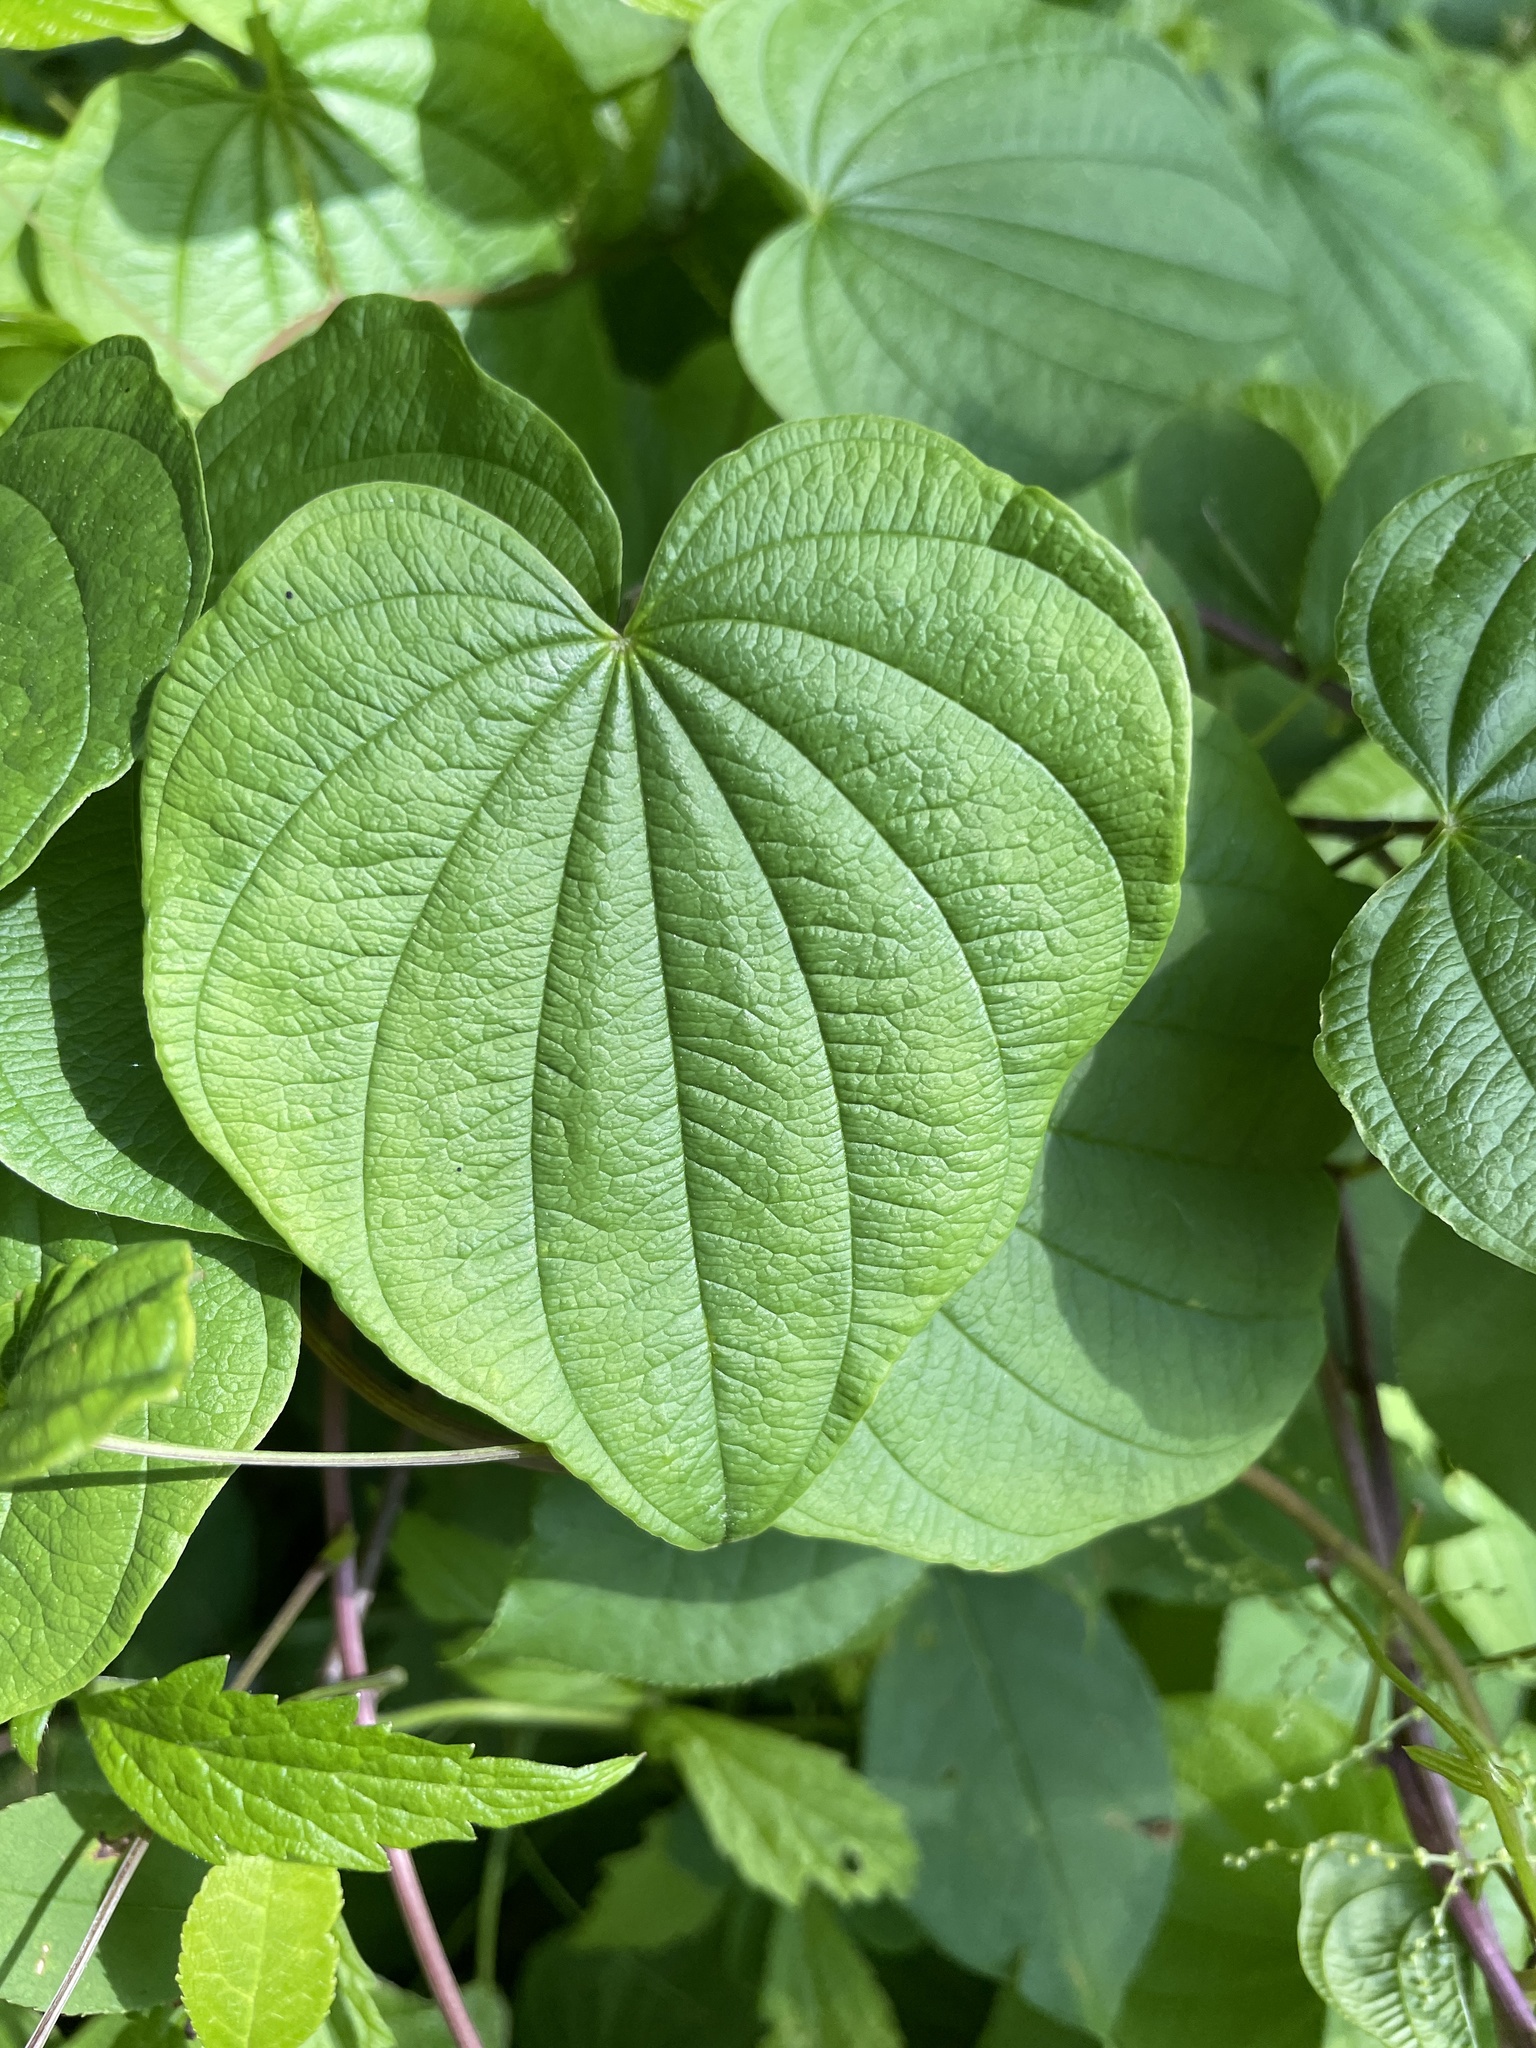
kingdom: Plantae
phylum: Tracheophyta
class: Liliopsida
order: Dioscoreales
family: Dioscoreaceae
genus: Dioscorea
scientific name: Dioscorea villosa
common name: Wild yam
